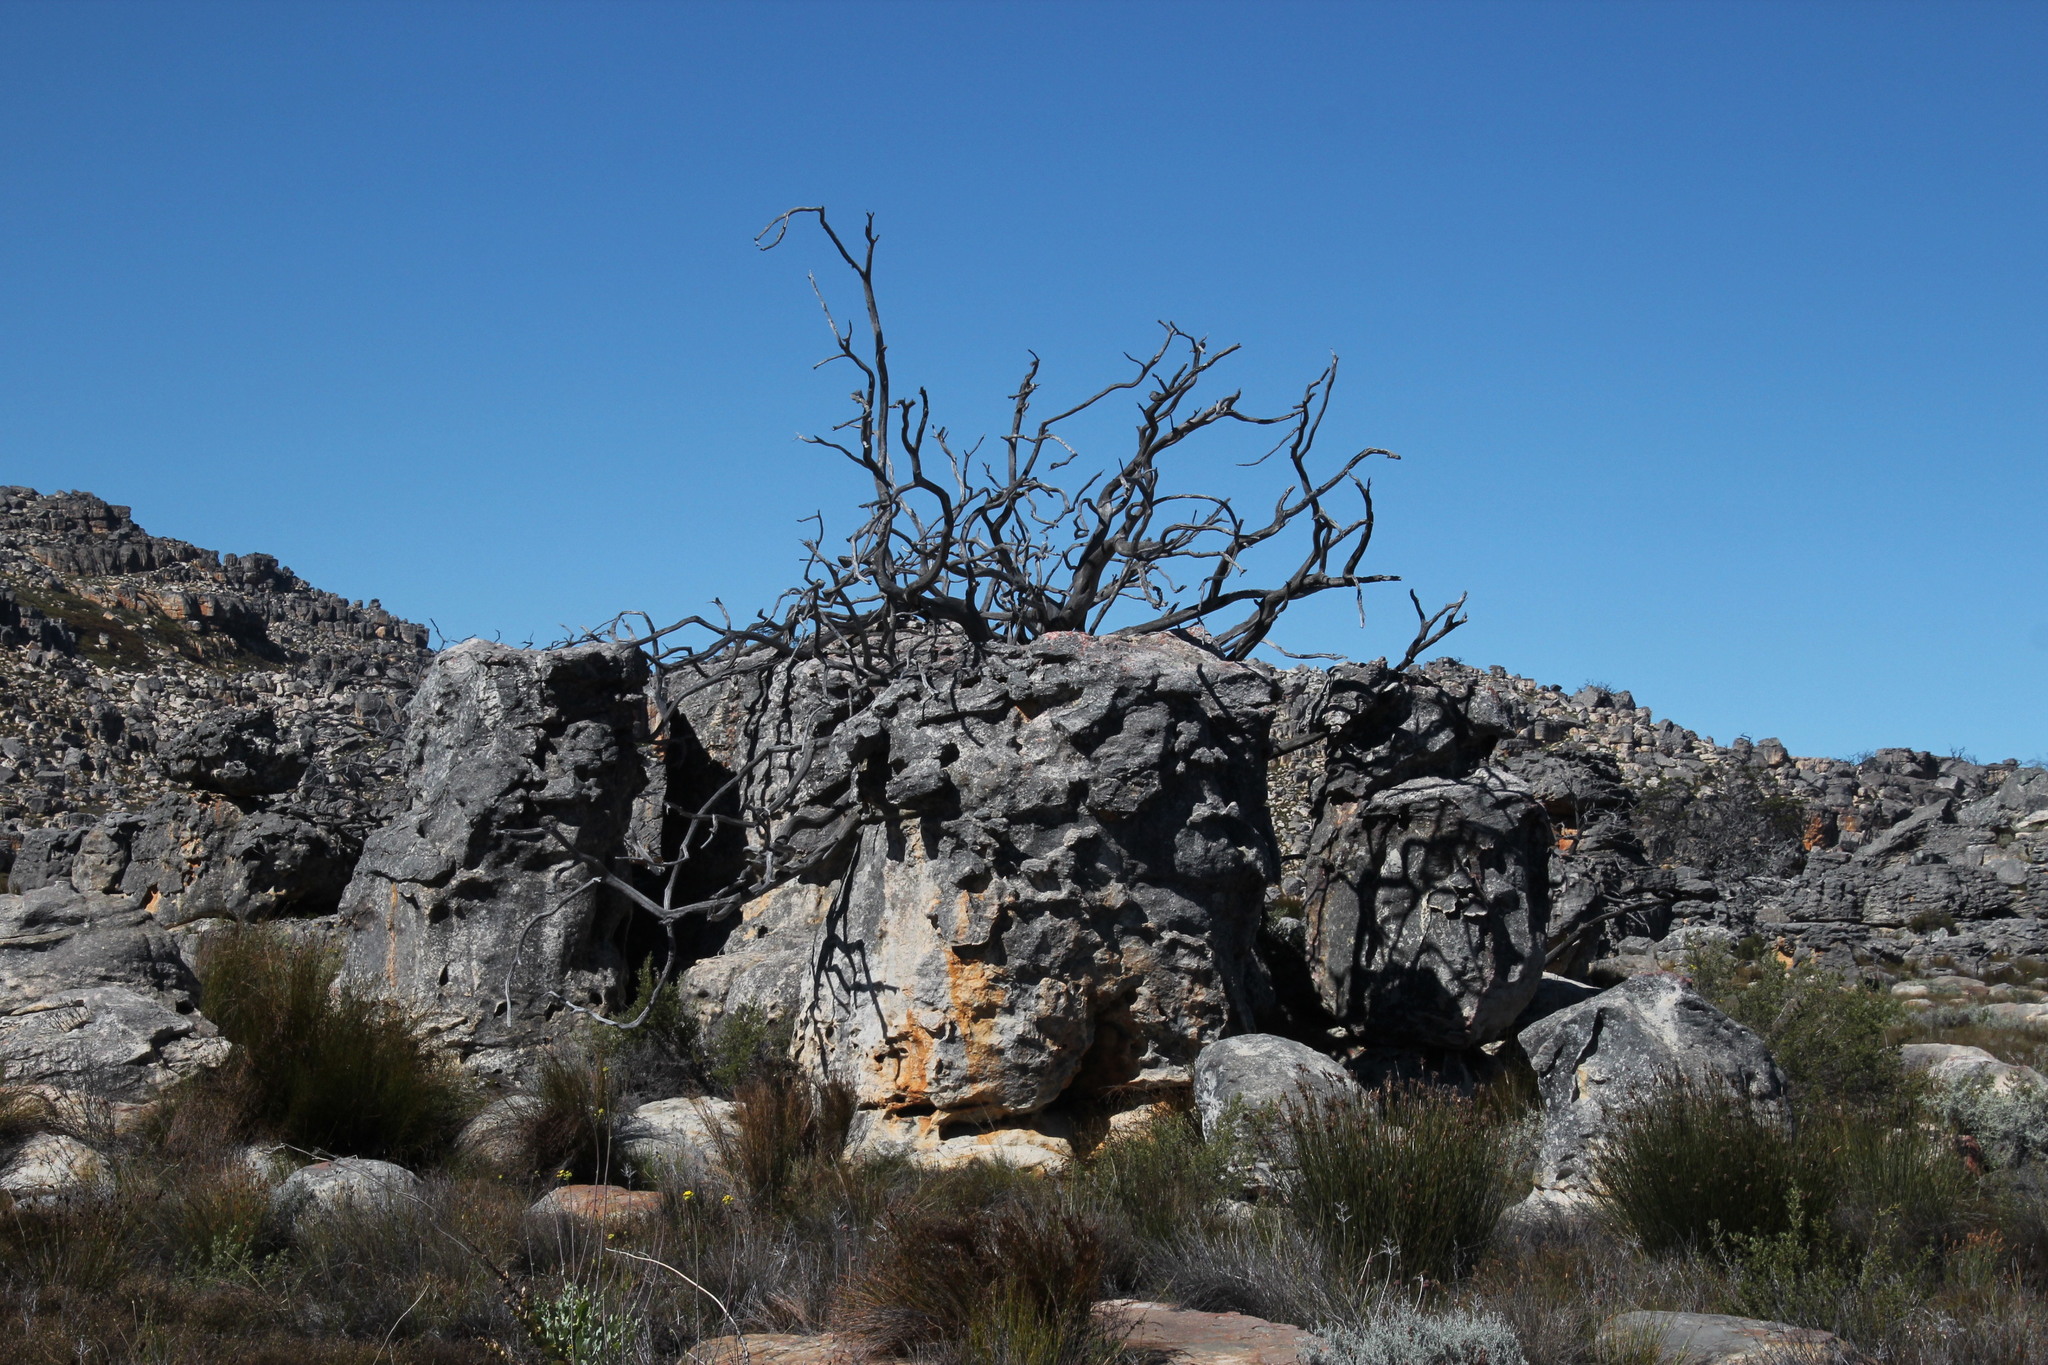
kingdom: Plantae
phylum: Tracheophyta
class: Pinopsida
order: Pinales
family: Cupressaceae
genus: Widdringtonia
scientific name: Widdringtonia nodiflora
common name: Cape cypress
